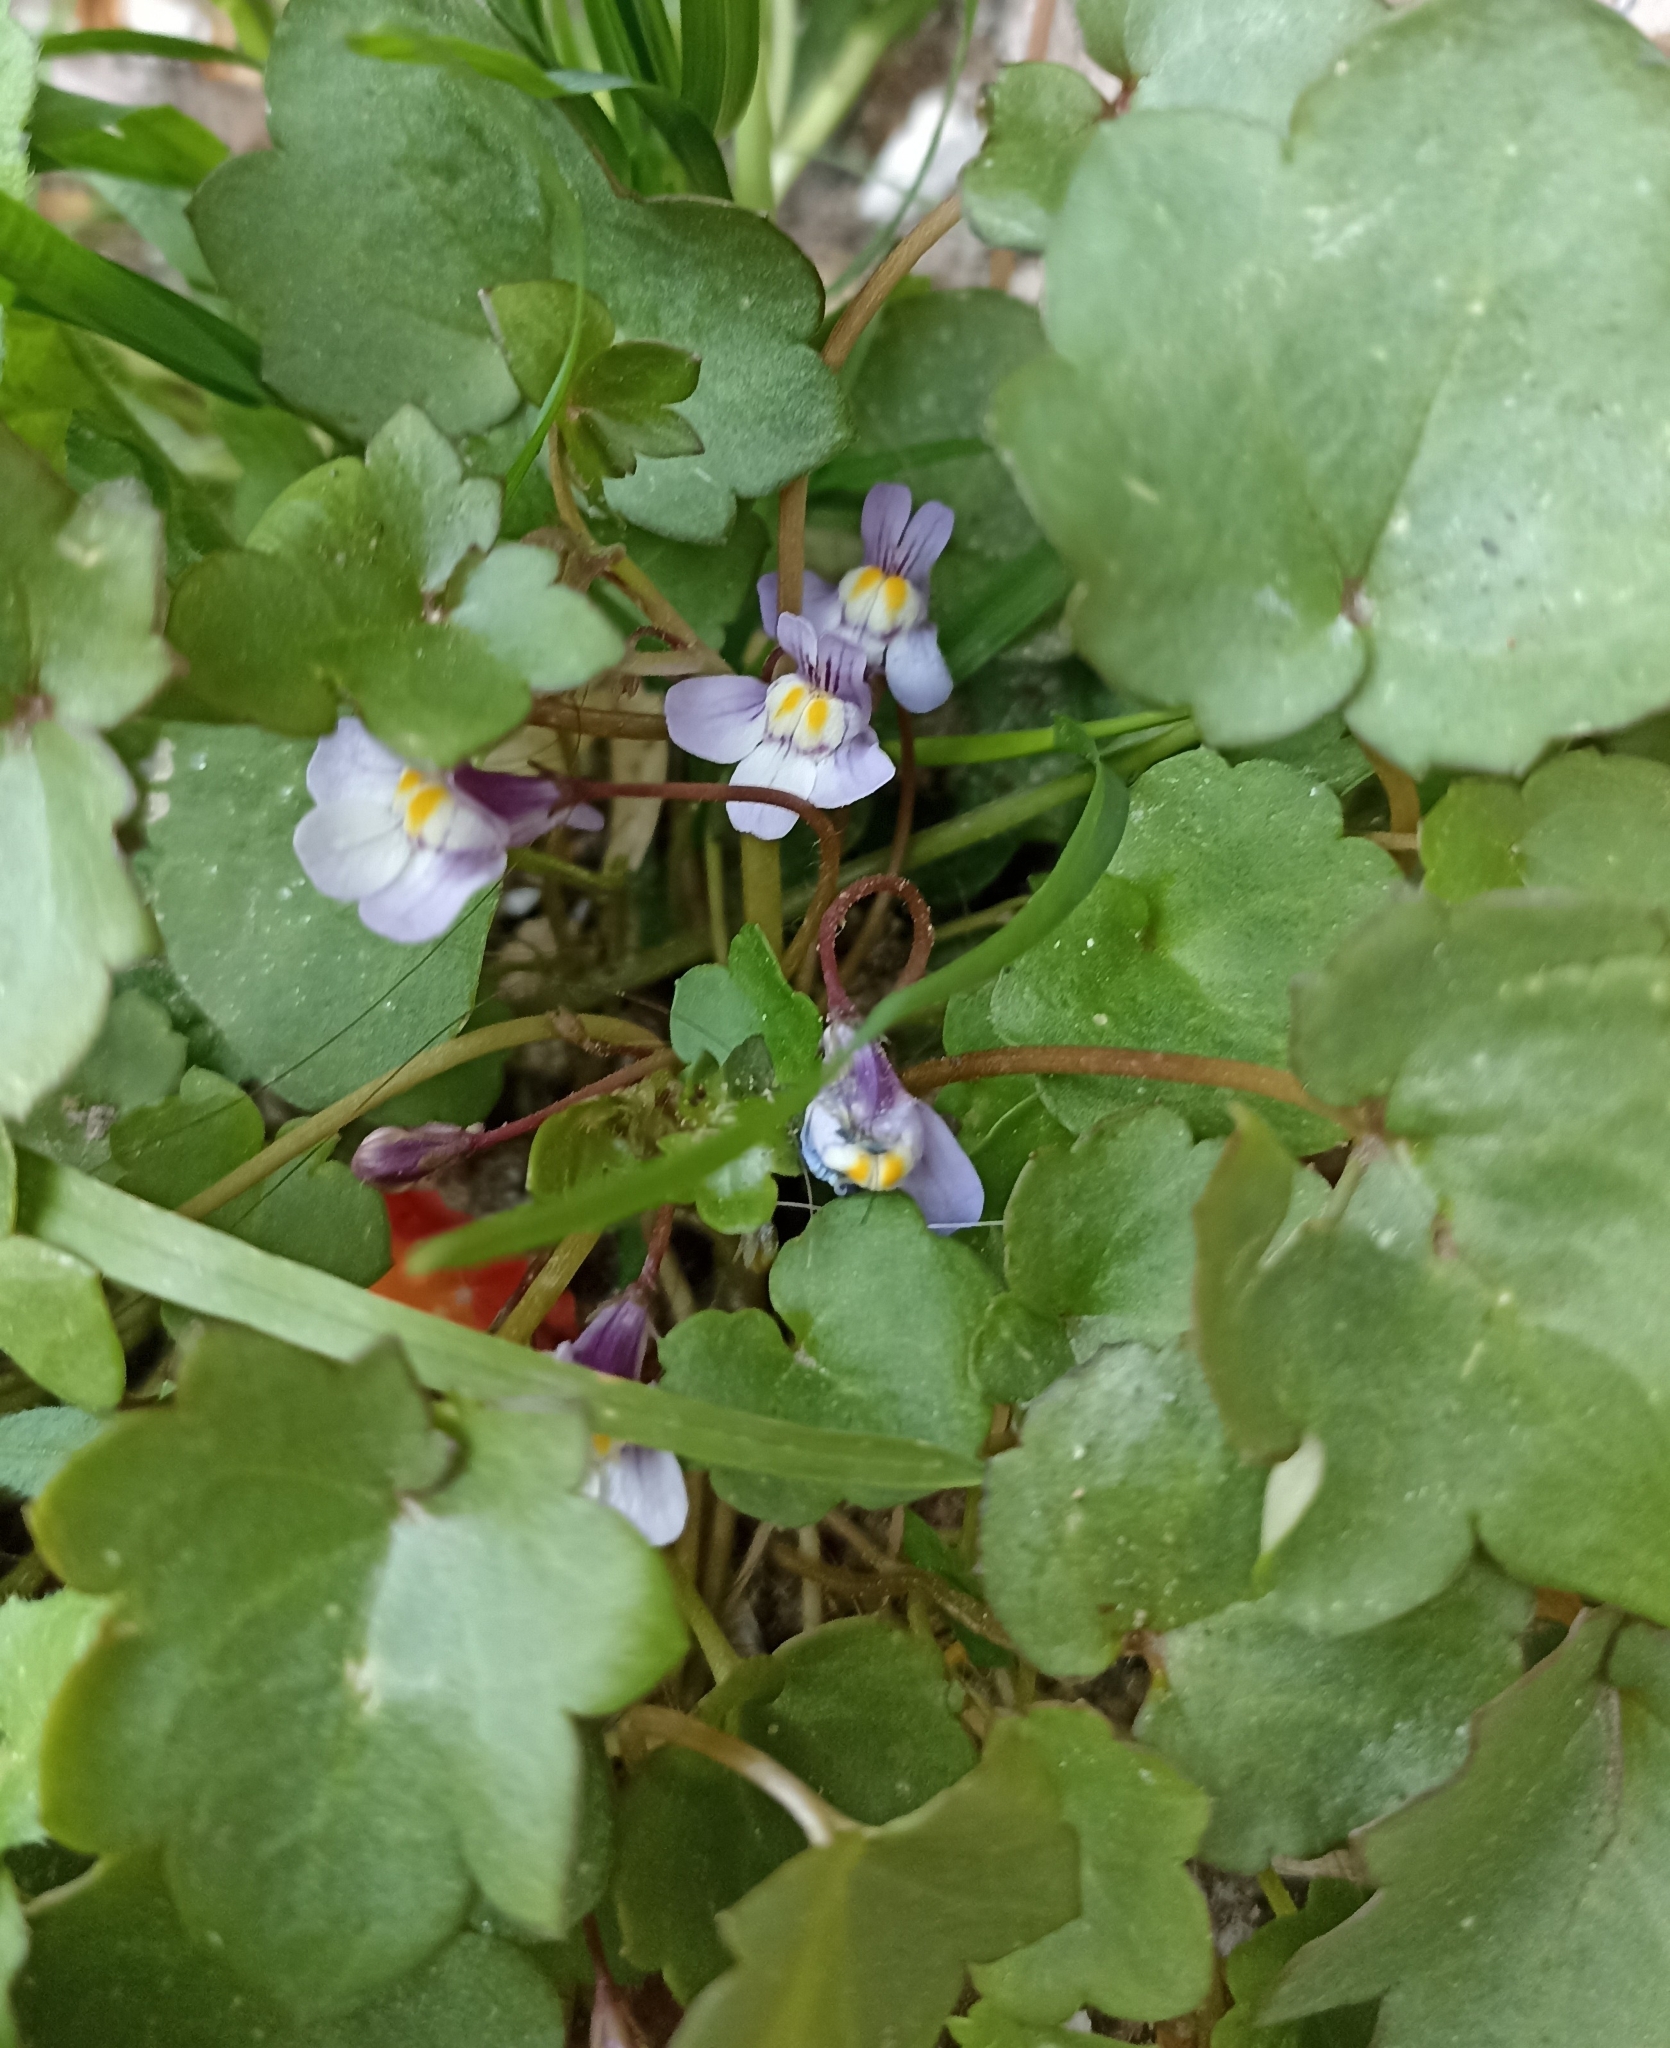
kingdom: Plantae
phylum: Tracheophyta
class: Magnoliopsida
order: Lamiales
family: Plantaginaceae
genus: Cymbalaria
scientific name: Cymbalaria muralis
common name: Ivy-leaved toadflax
